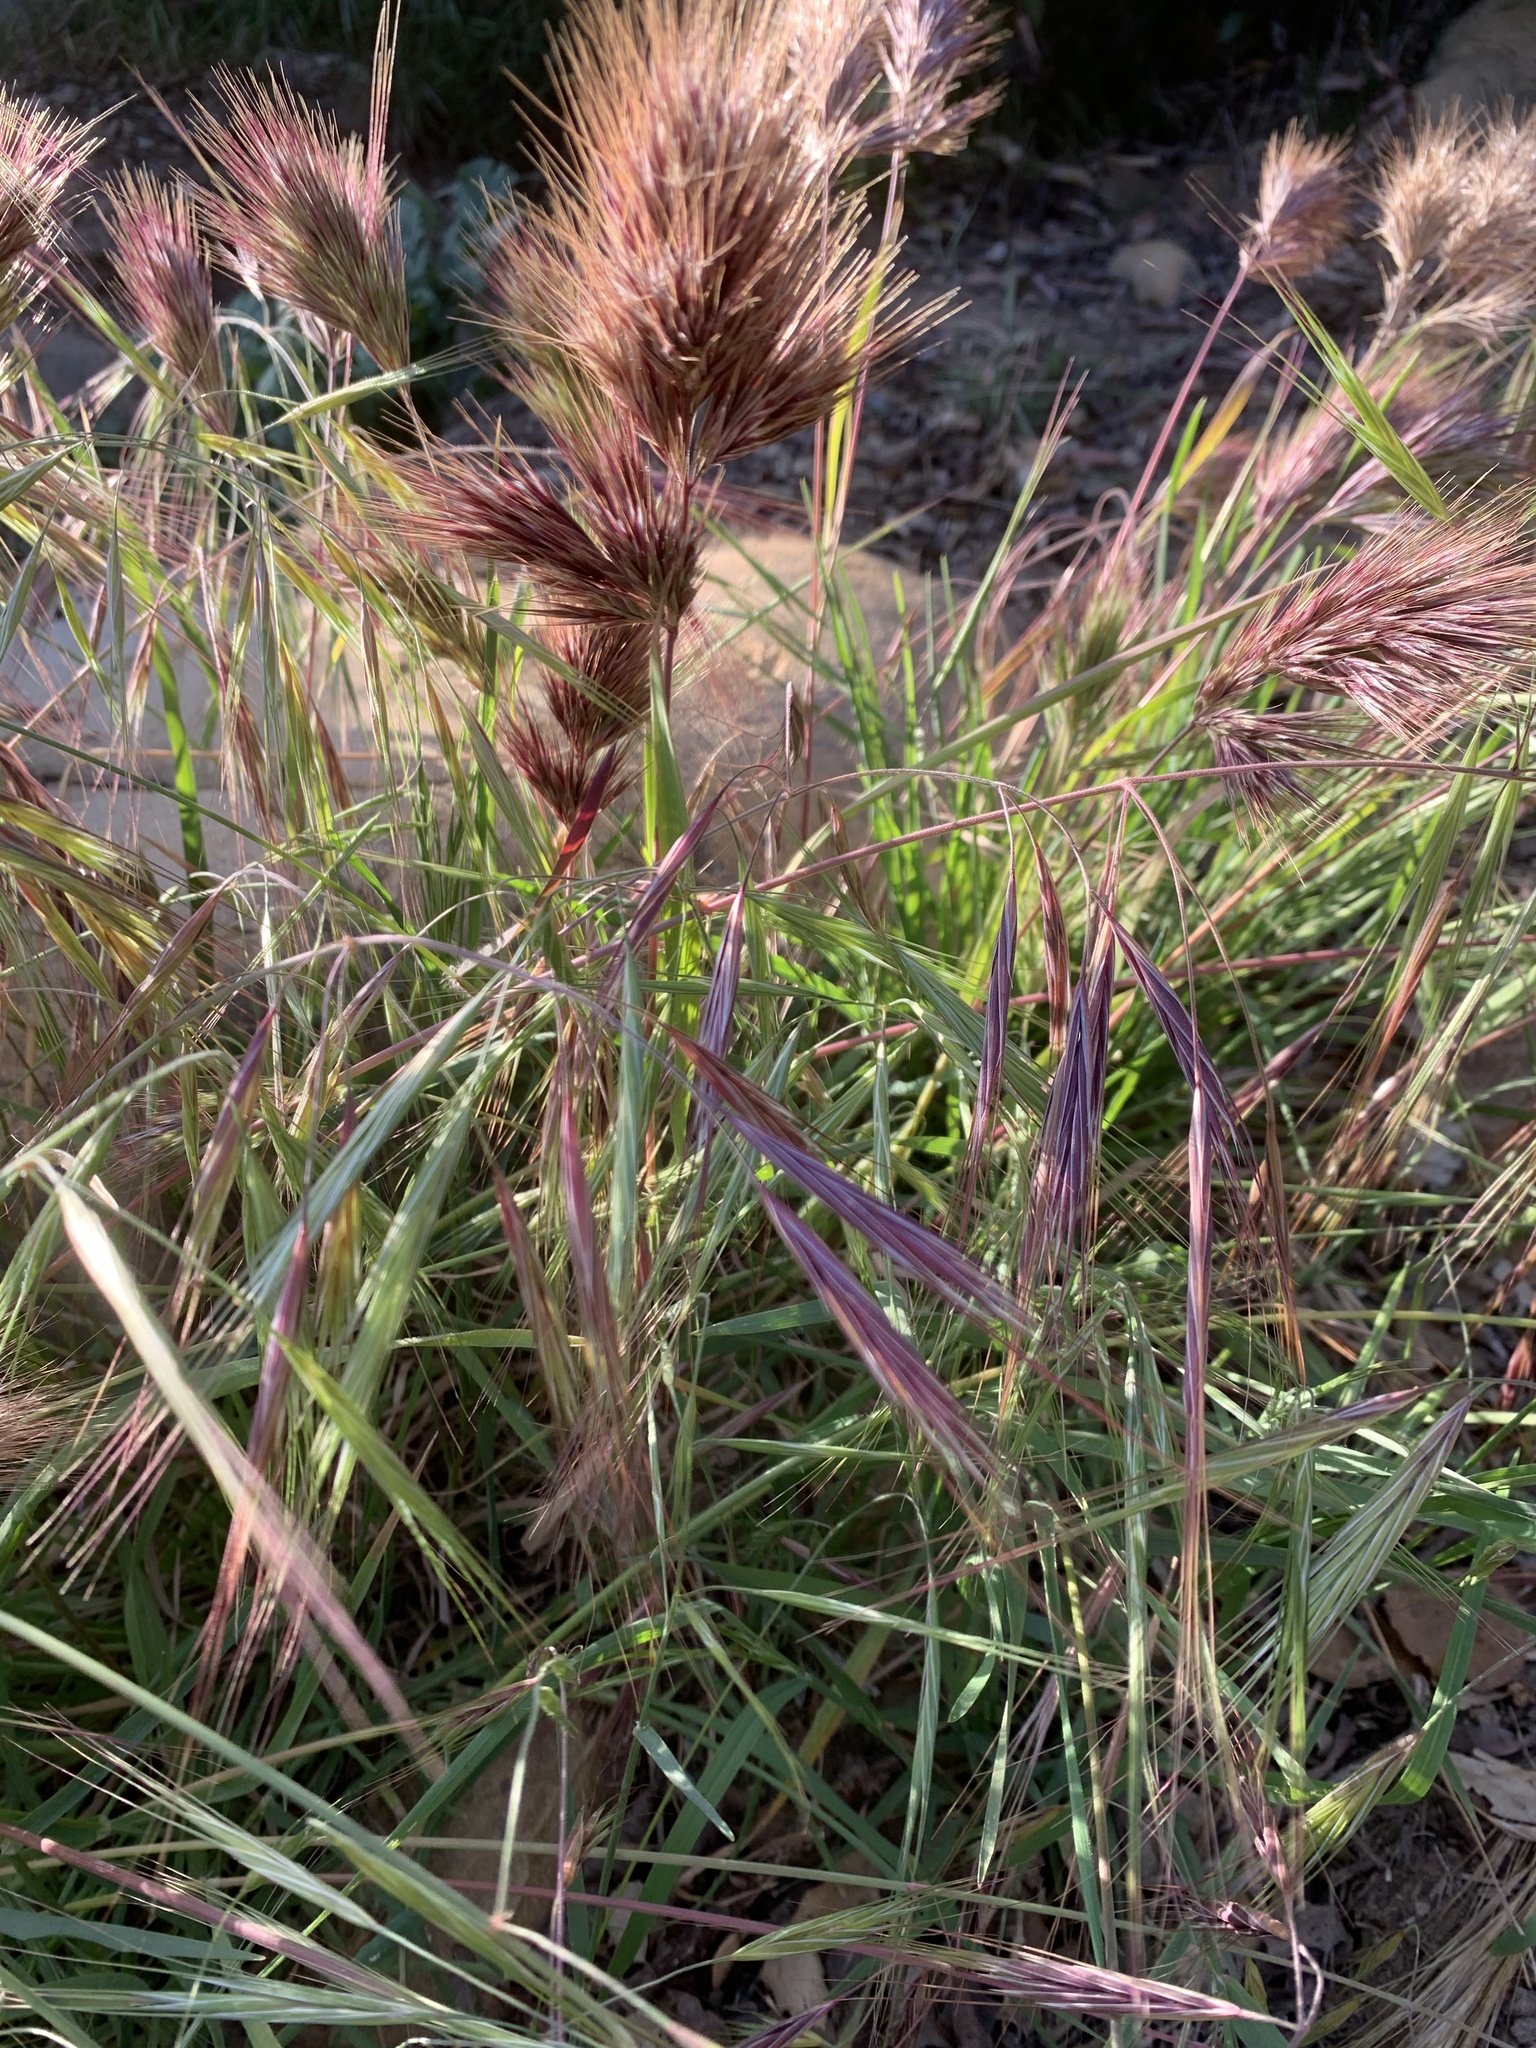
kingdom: Plantae
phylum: Tracheophyta
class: Liliopsida
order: Poales
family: Poaceae
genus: Bromus
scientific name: Bromus rubens
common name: Red brome
